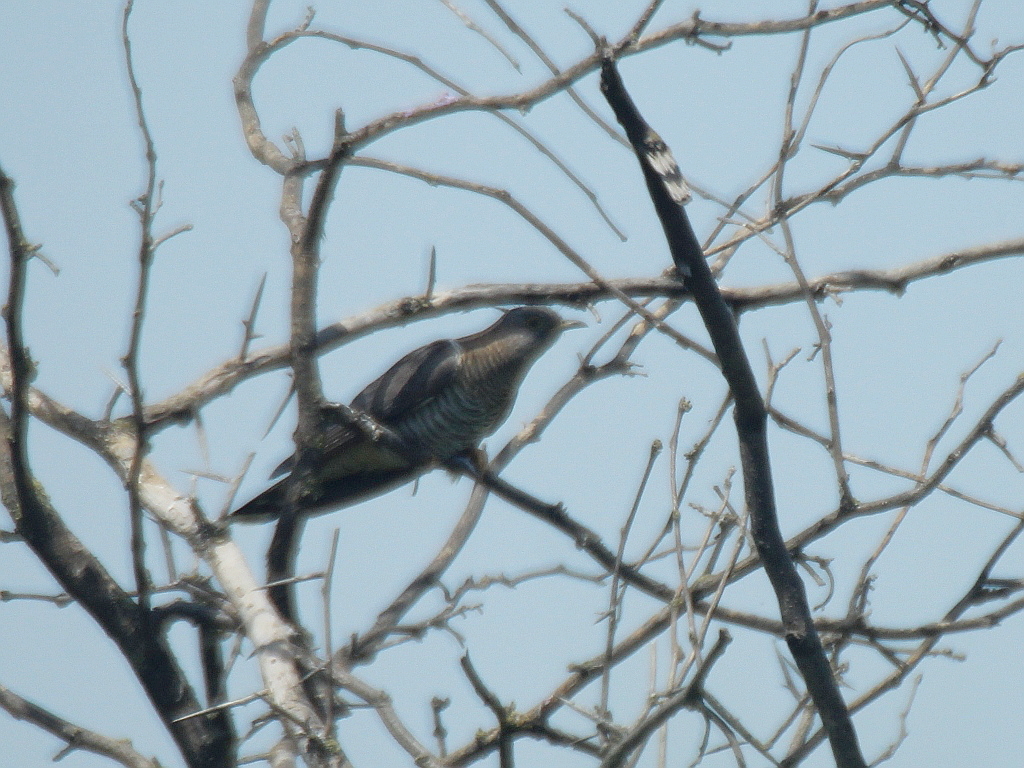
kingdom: Animalia
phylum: Chordata
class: Aves
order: Cuculiformes
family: Cuculidae
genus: Cuculus
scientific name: Cuculus canorus
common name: Common cuckoo
